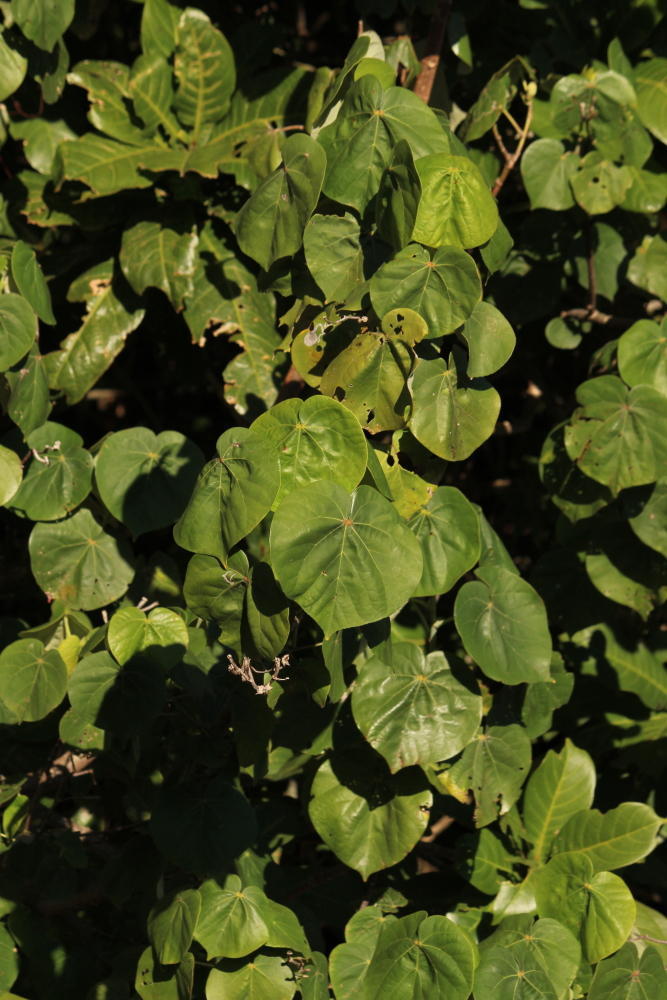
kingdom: Plantae
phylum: Tracheophyta
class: Magnoliopsida
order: Malvales
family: Malvaceae
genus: Talipariti
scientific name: Talipariti tiliaceum
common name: Sea hibiscus
